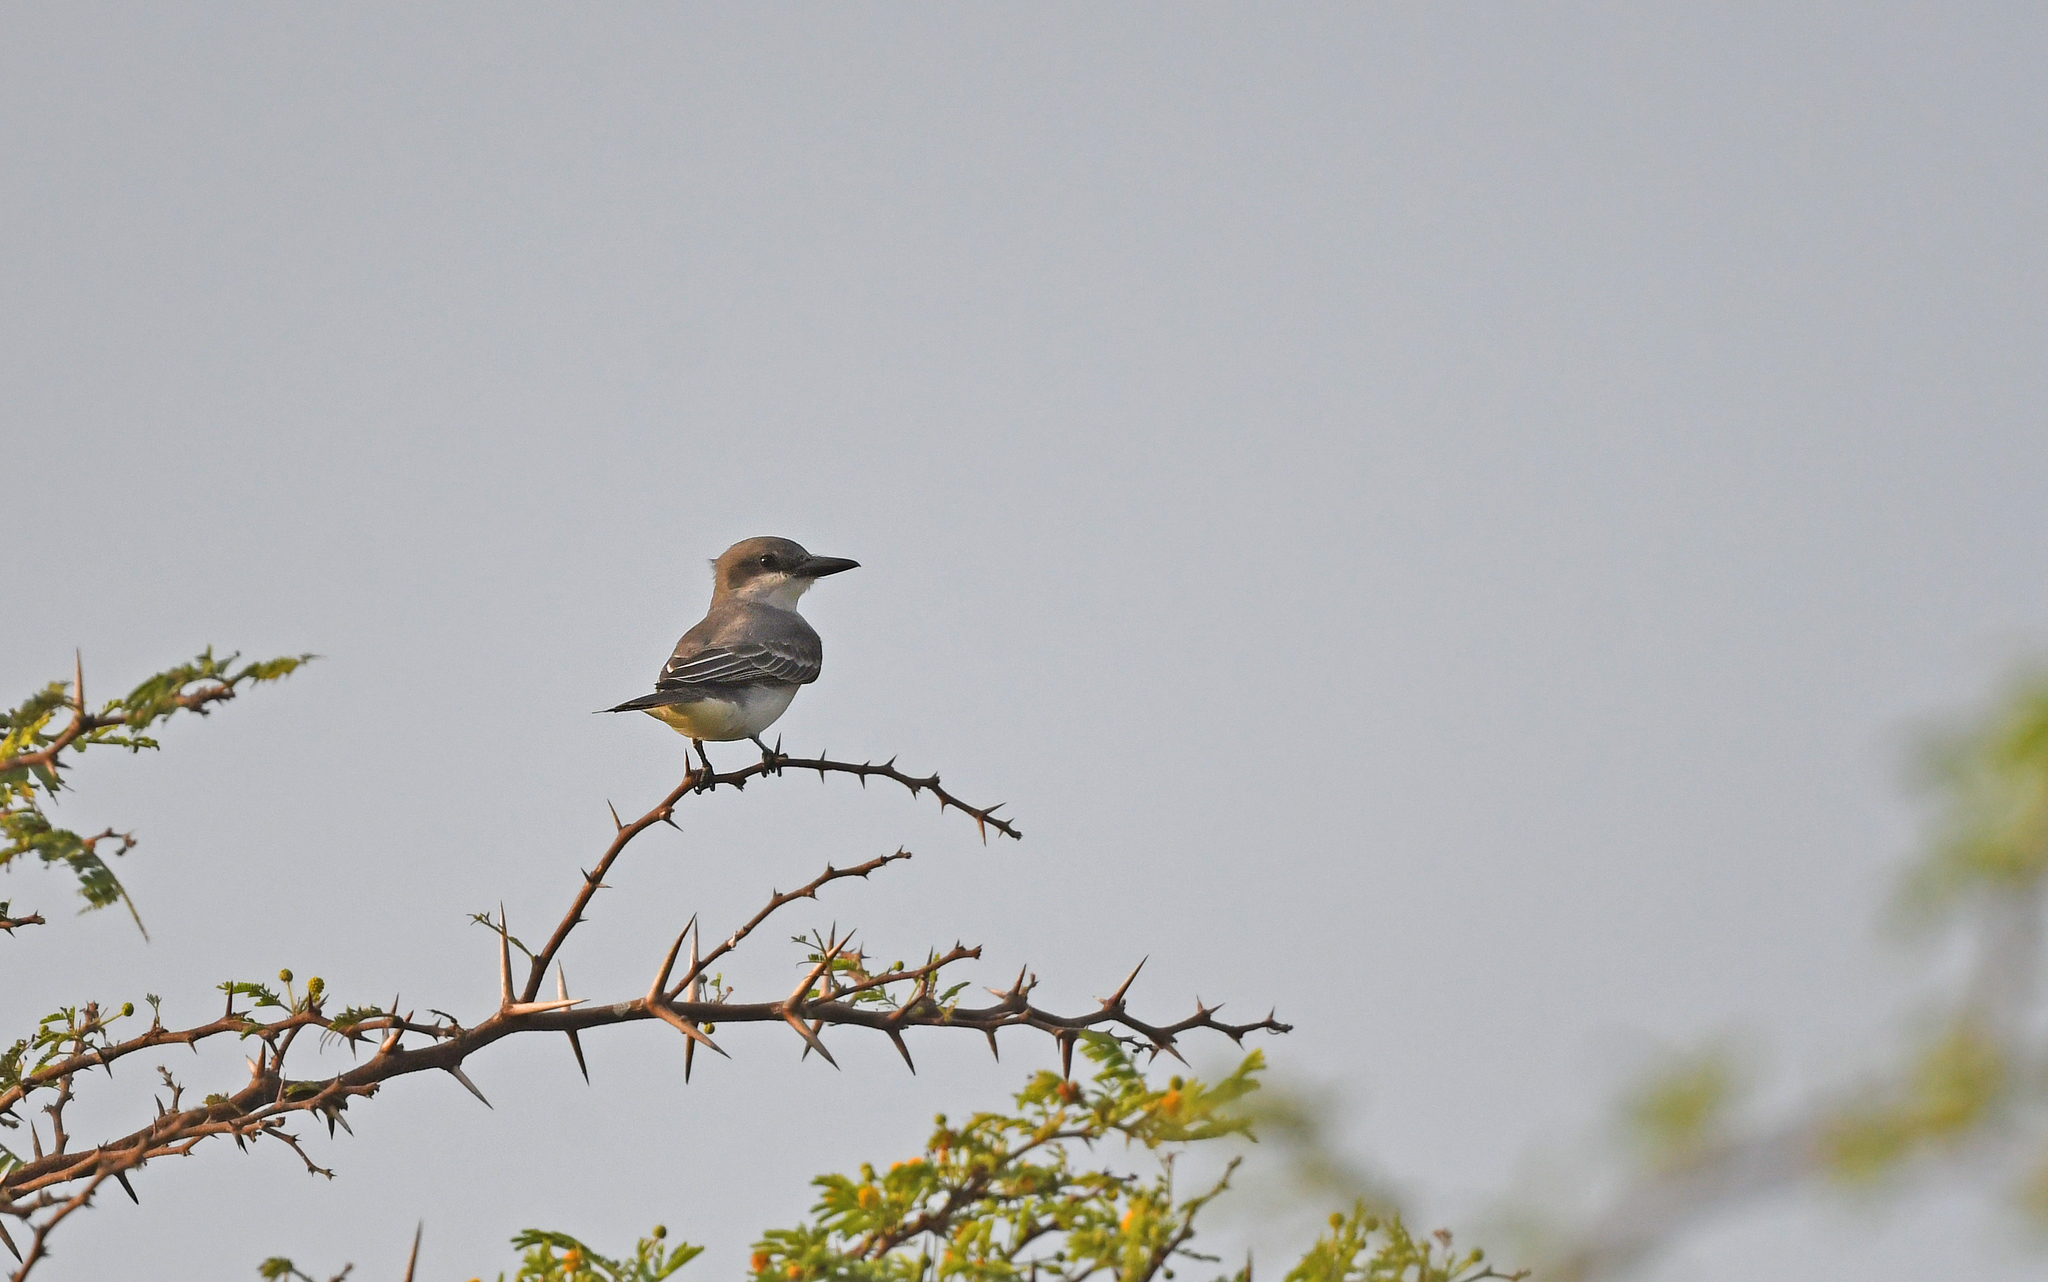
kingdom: Animalia
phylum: Chordata
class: Aves
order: Passeriformes
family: Tyrannidae
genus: Tyrannus
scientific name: Tyrannus dominicensis
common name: Gray kingbird
